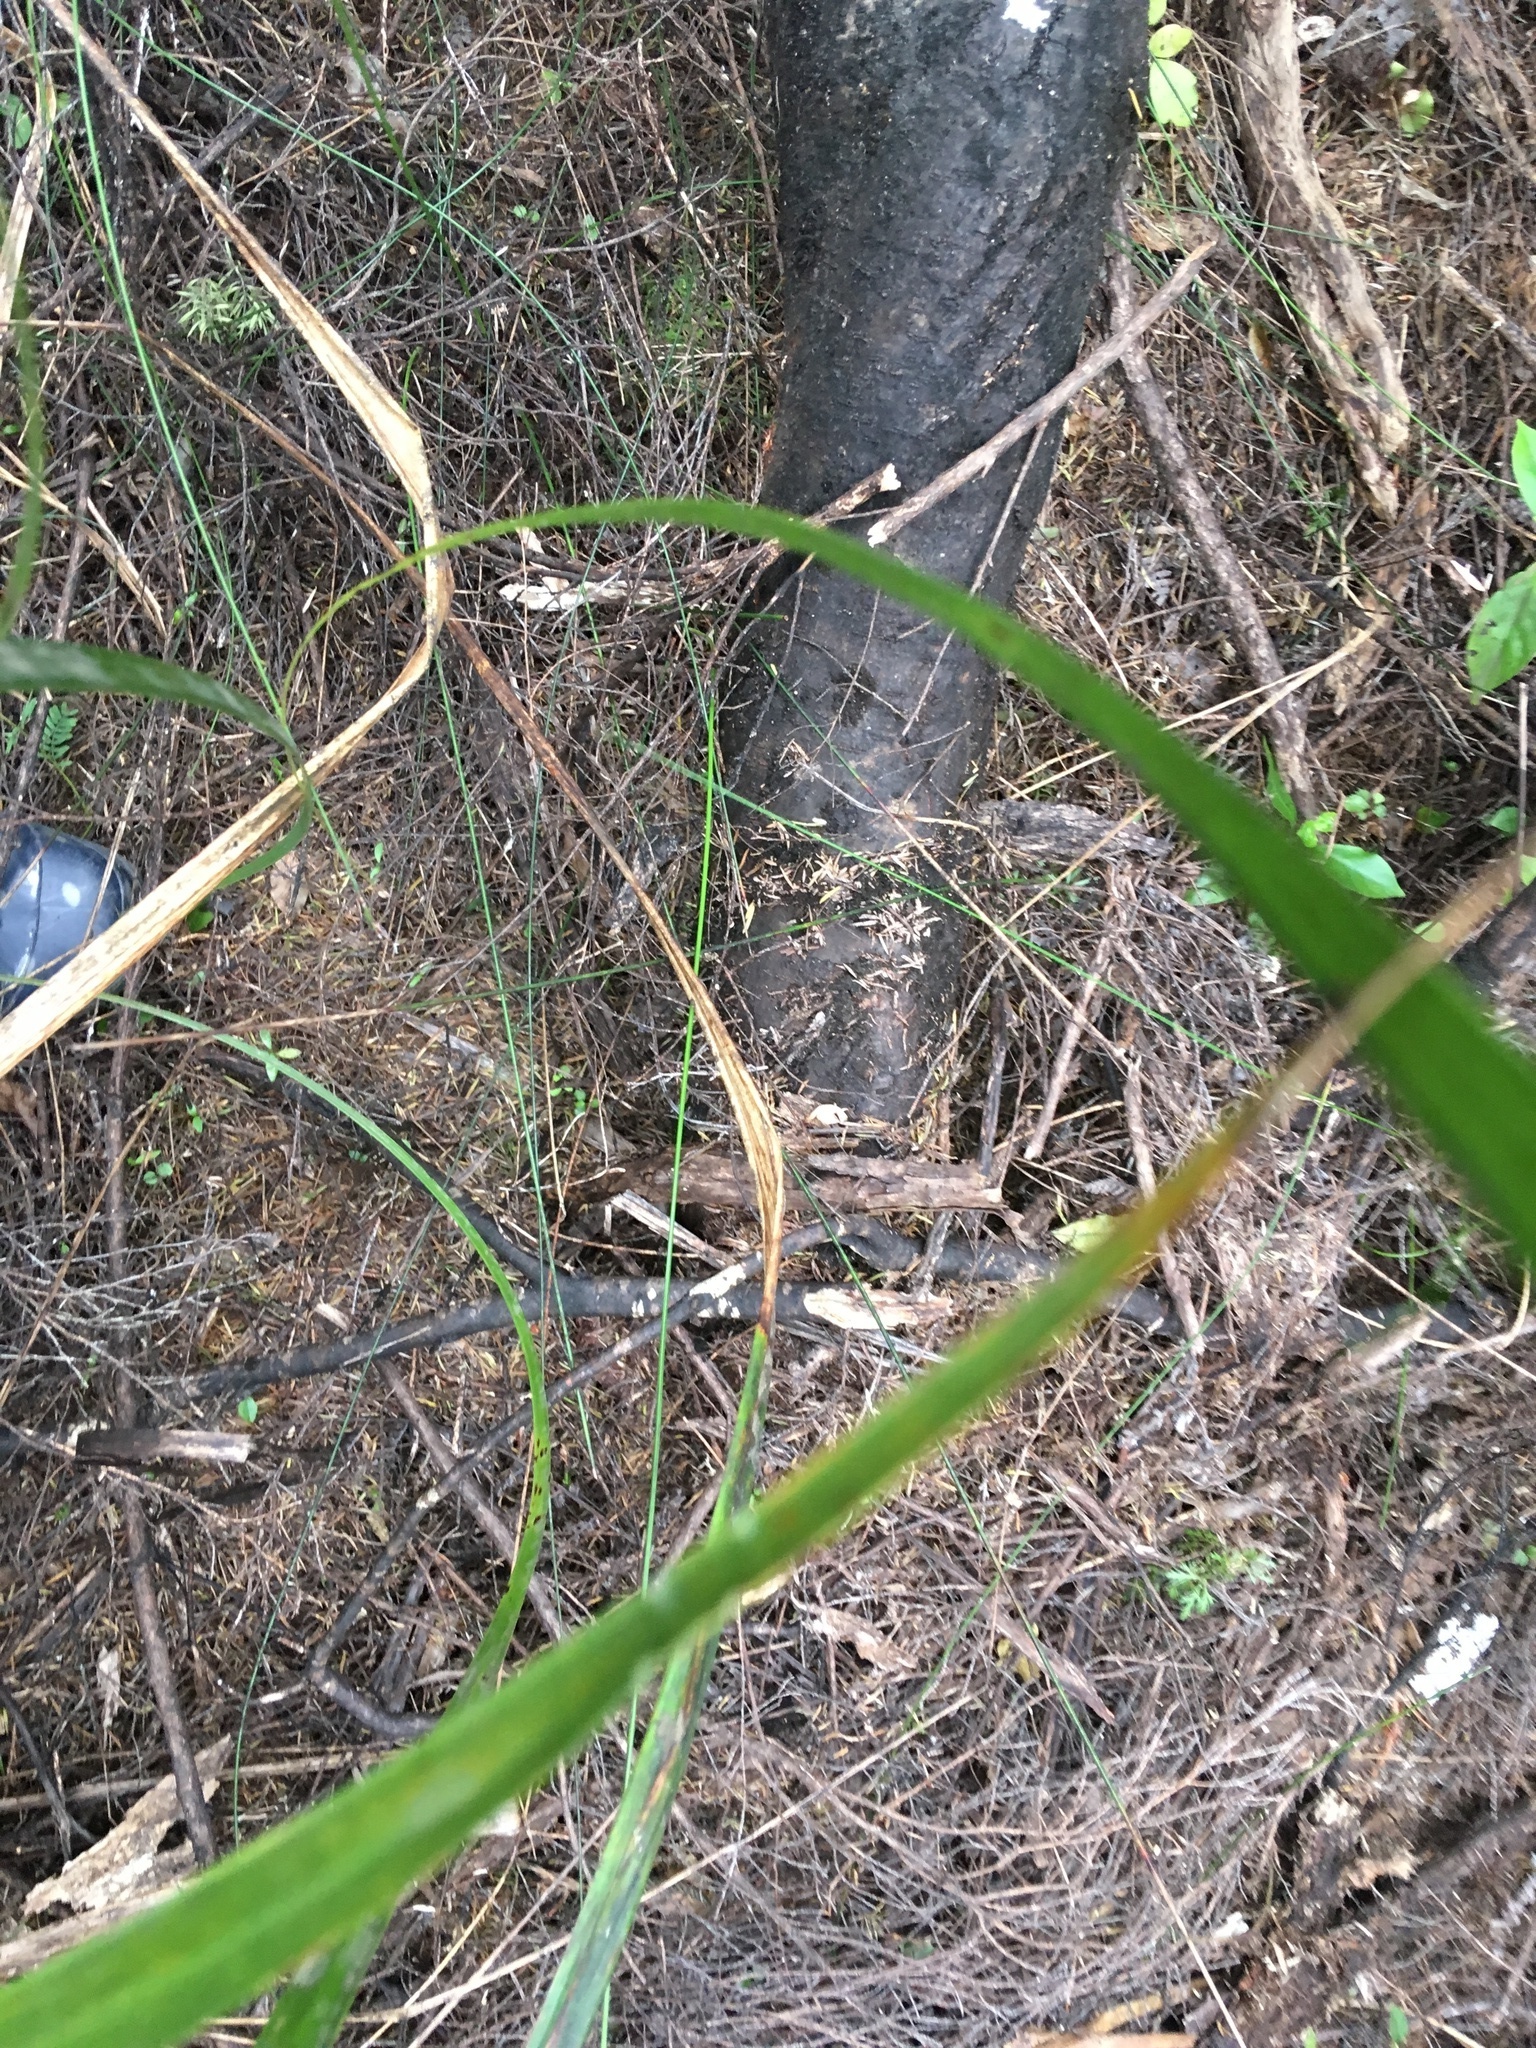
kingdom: Plantae
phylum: Tracheophyta
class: Magnoliopsida
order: Proteales
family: Proteaceae
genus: Hakea
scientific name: Hakea sericea
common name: Needle bush
